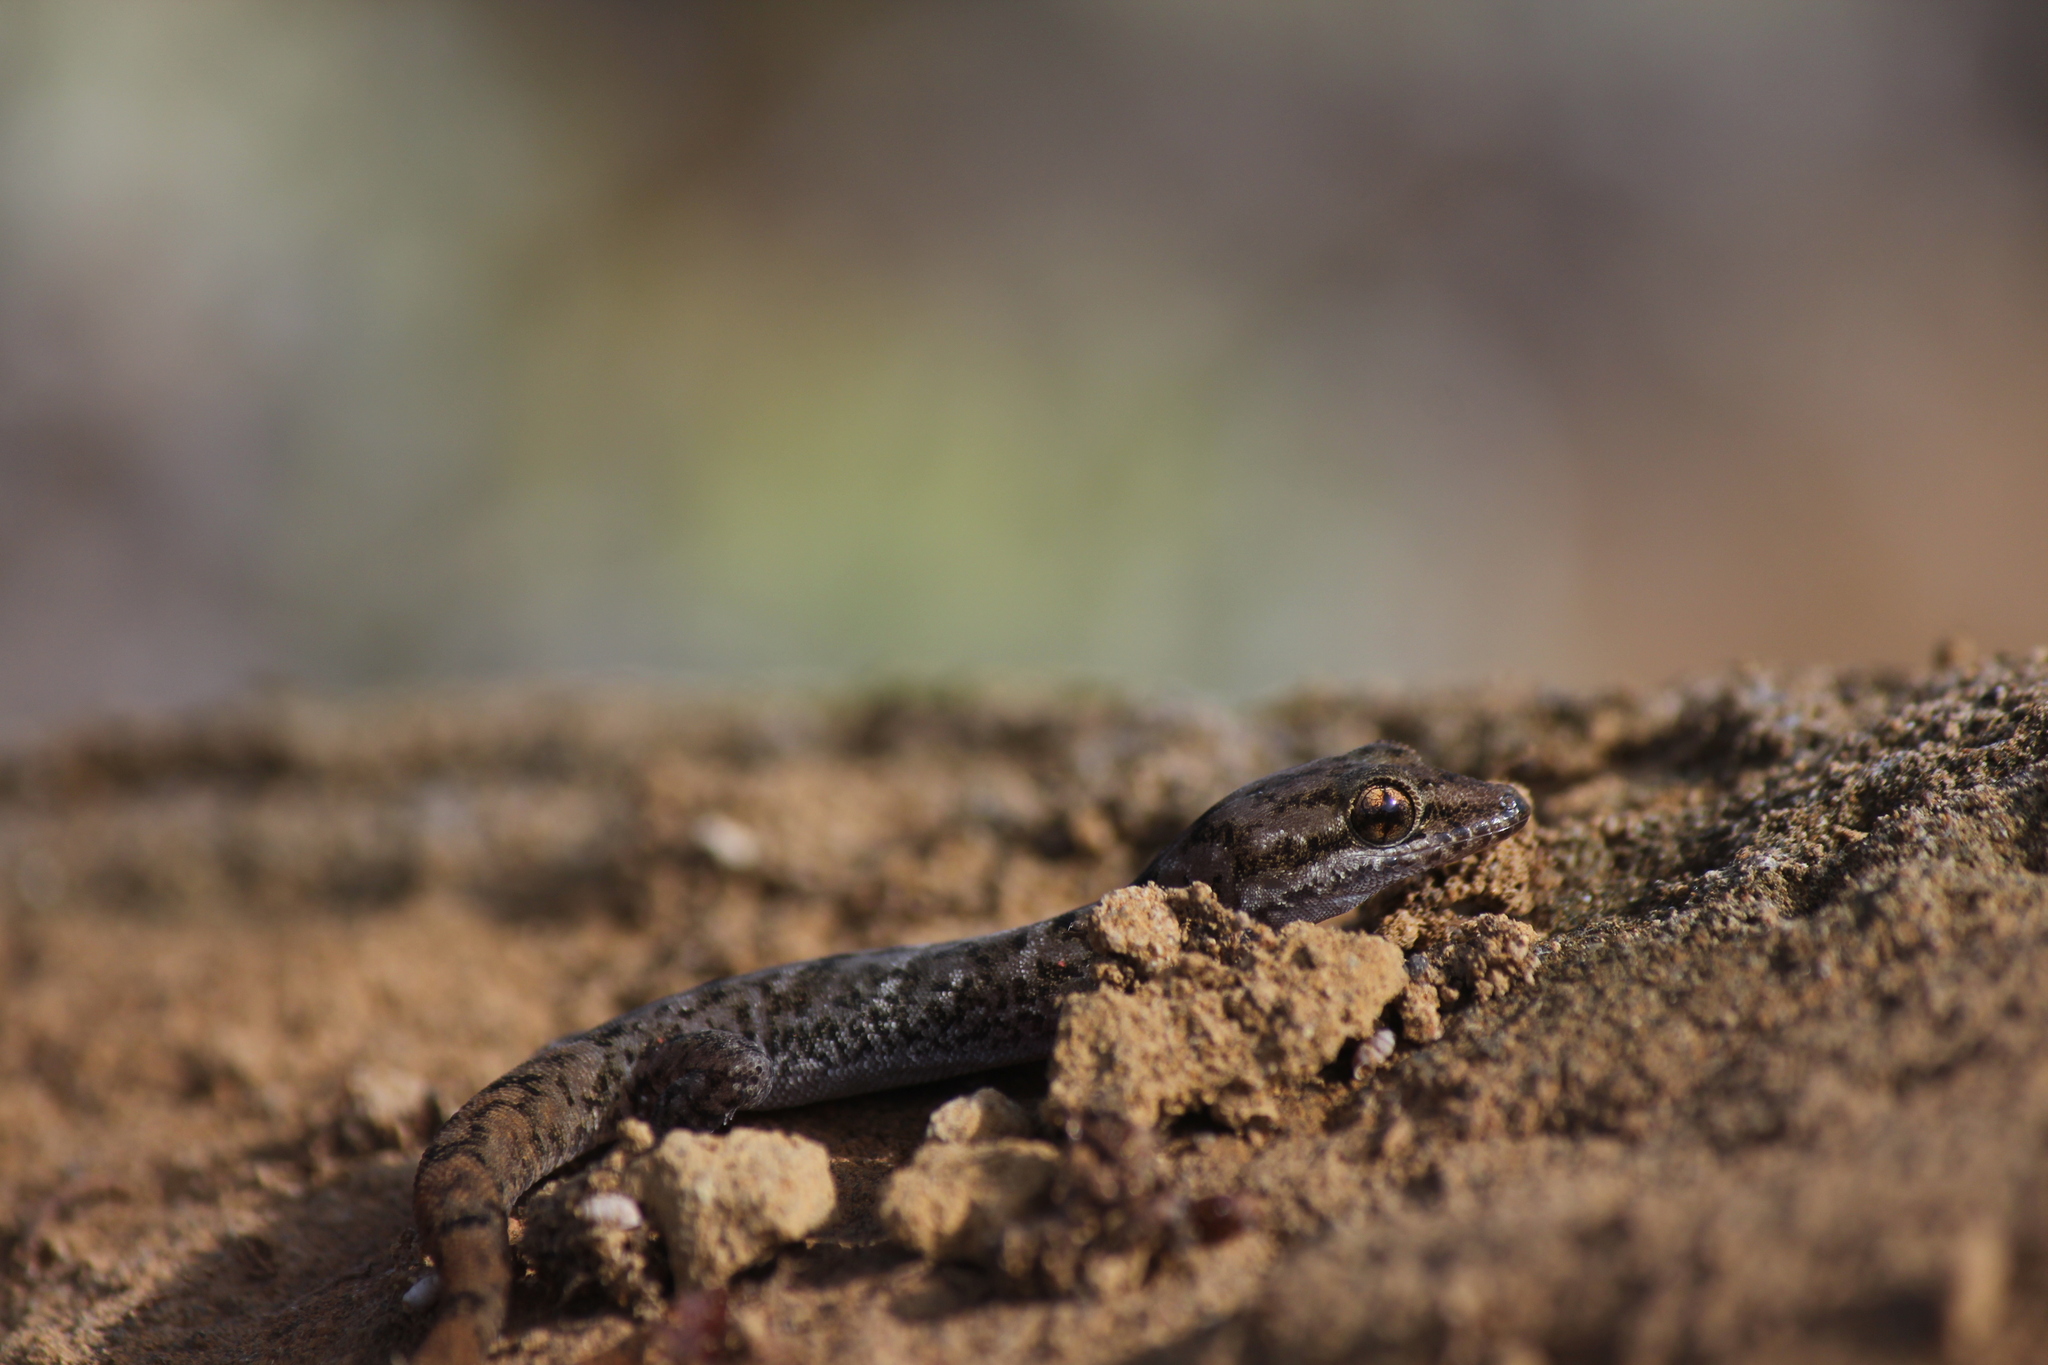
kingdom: Animalia
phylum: Chordata
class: Squamata
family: Phyllodactylidae
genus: Phyllodactylus
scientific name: Phyllodactylus leei
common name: Chatham leaf-toed gecko
